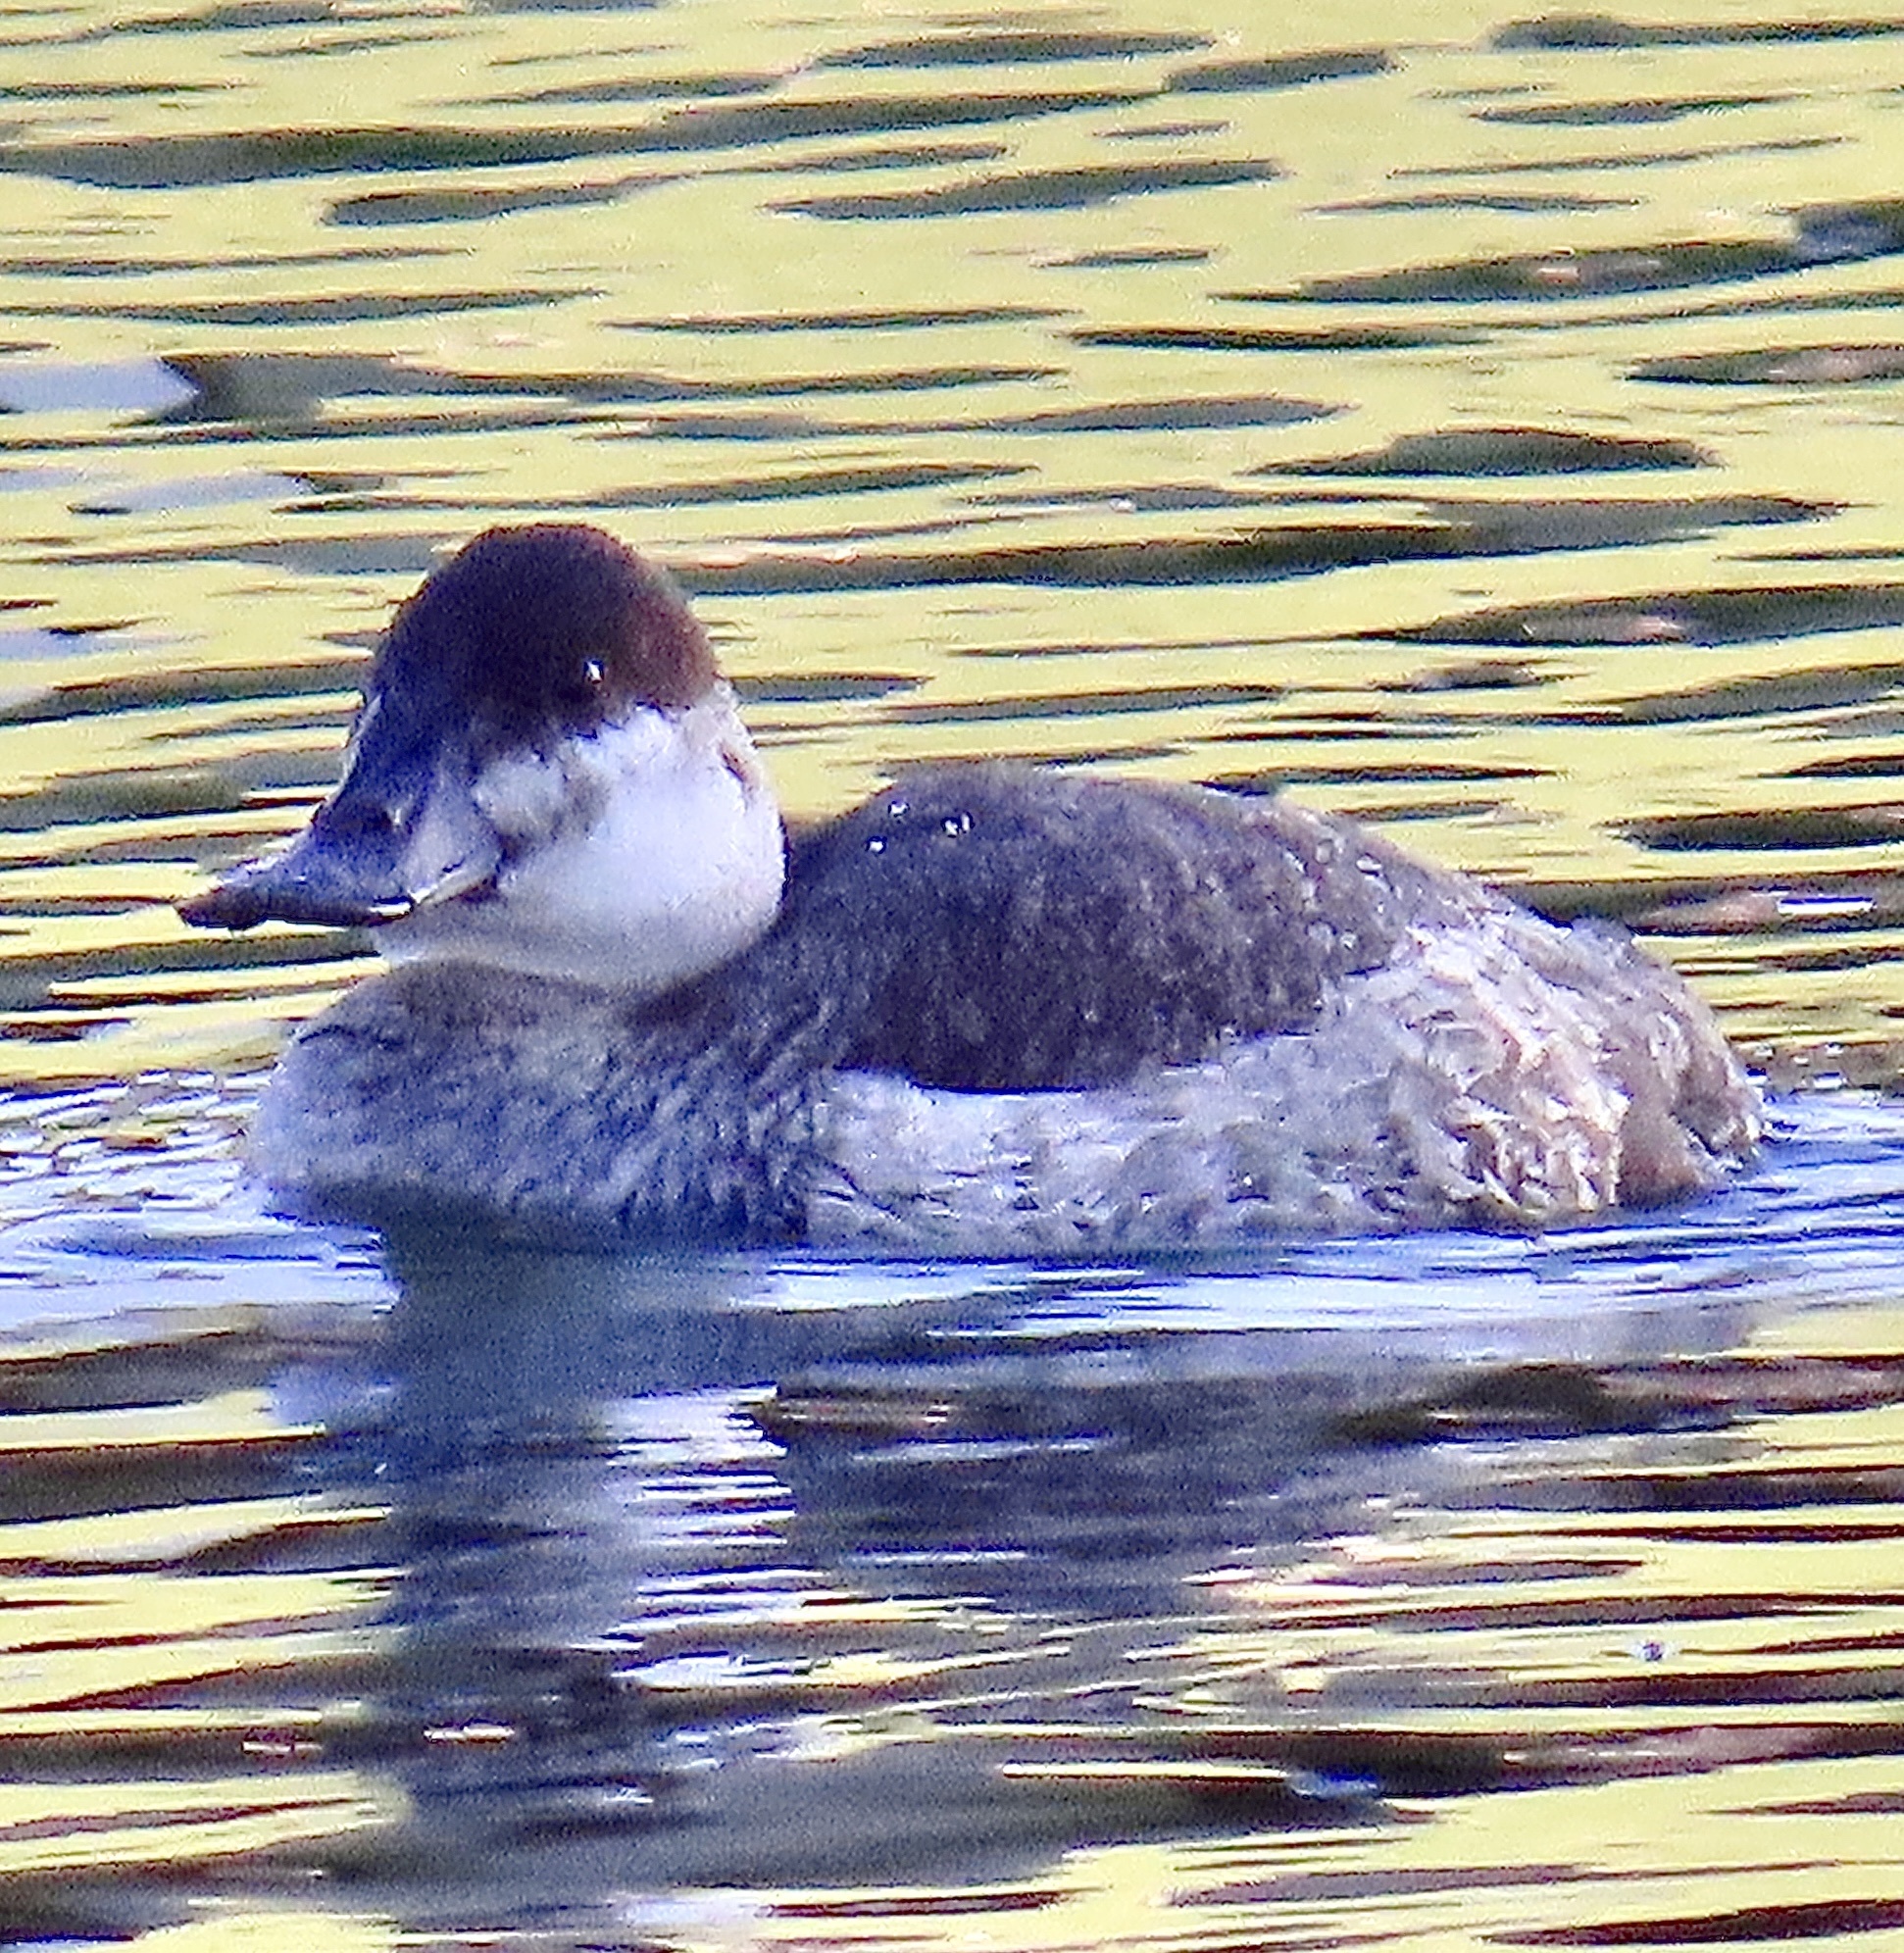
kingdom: Animalia
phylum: Chordata
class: Aves
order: Anseriformes
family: Anatidae
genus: Oxyura
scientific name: Oxyura jamaicensis
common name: Ruddy duck
